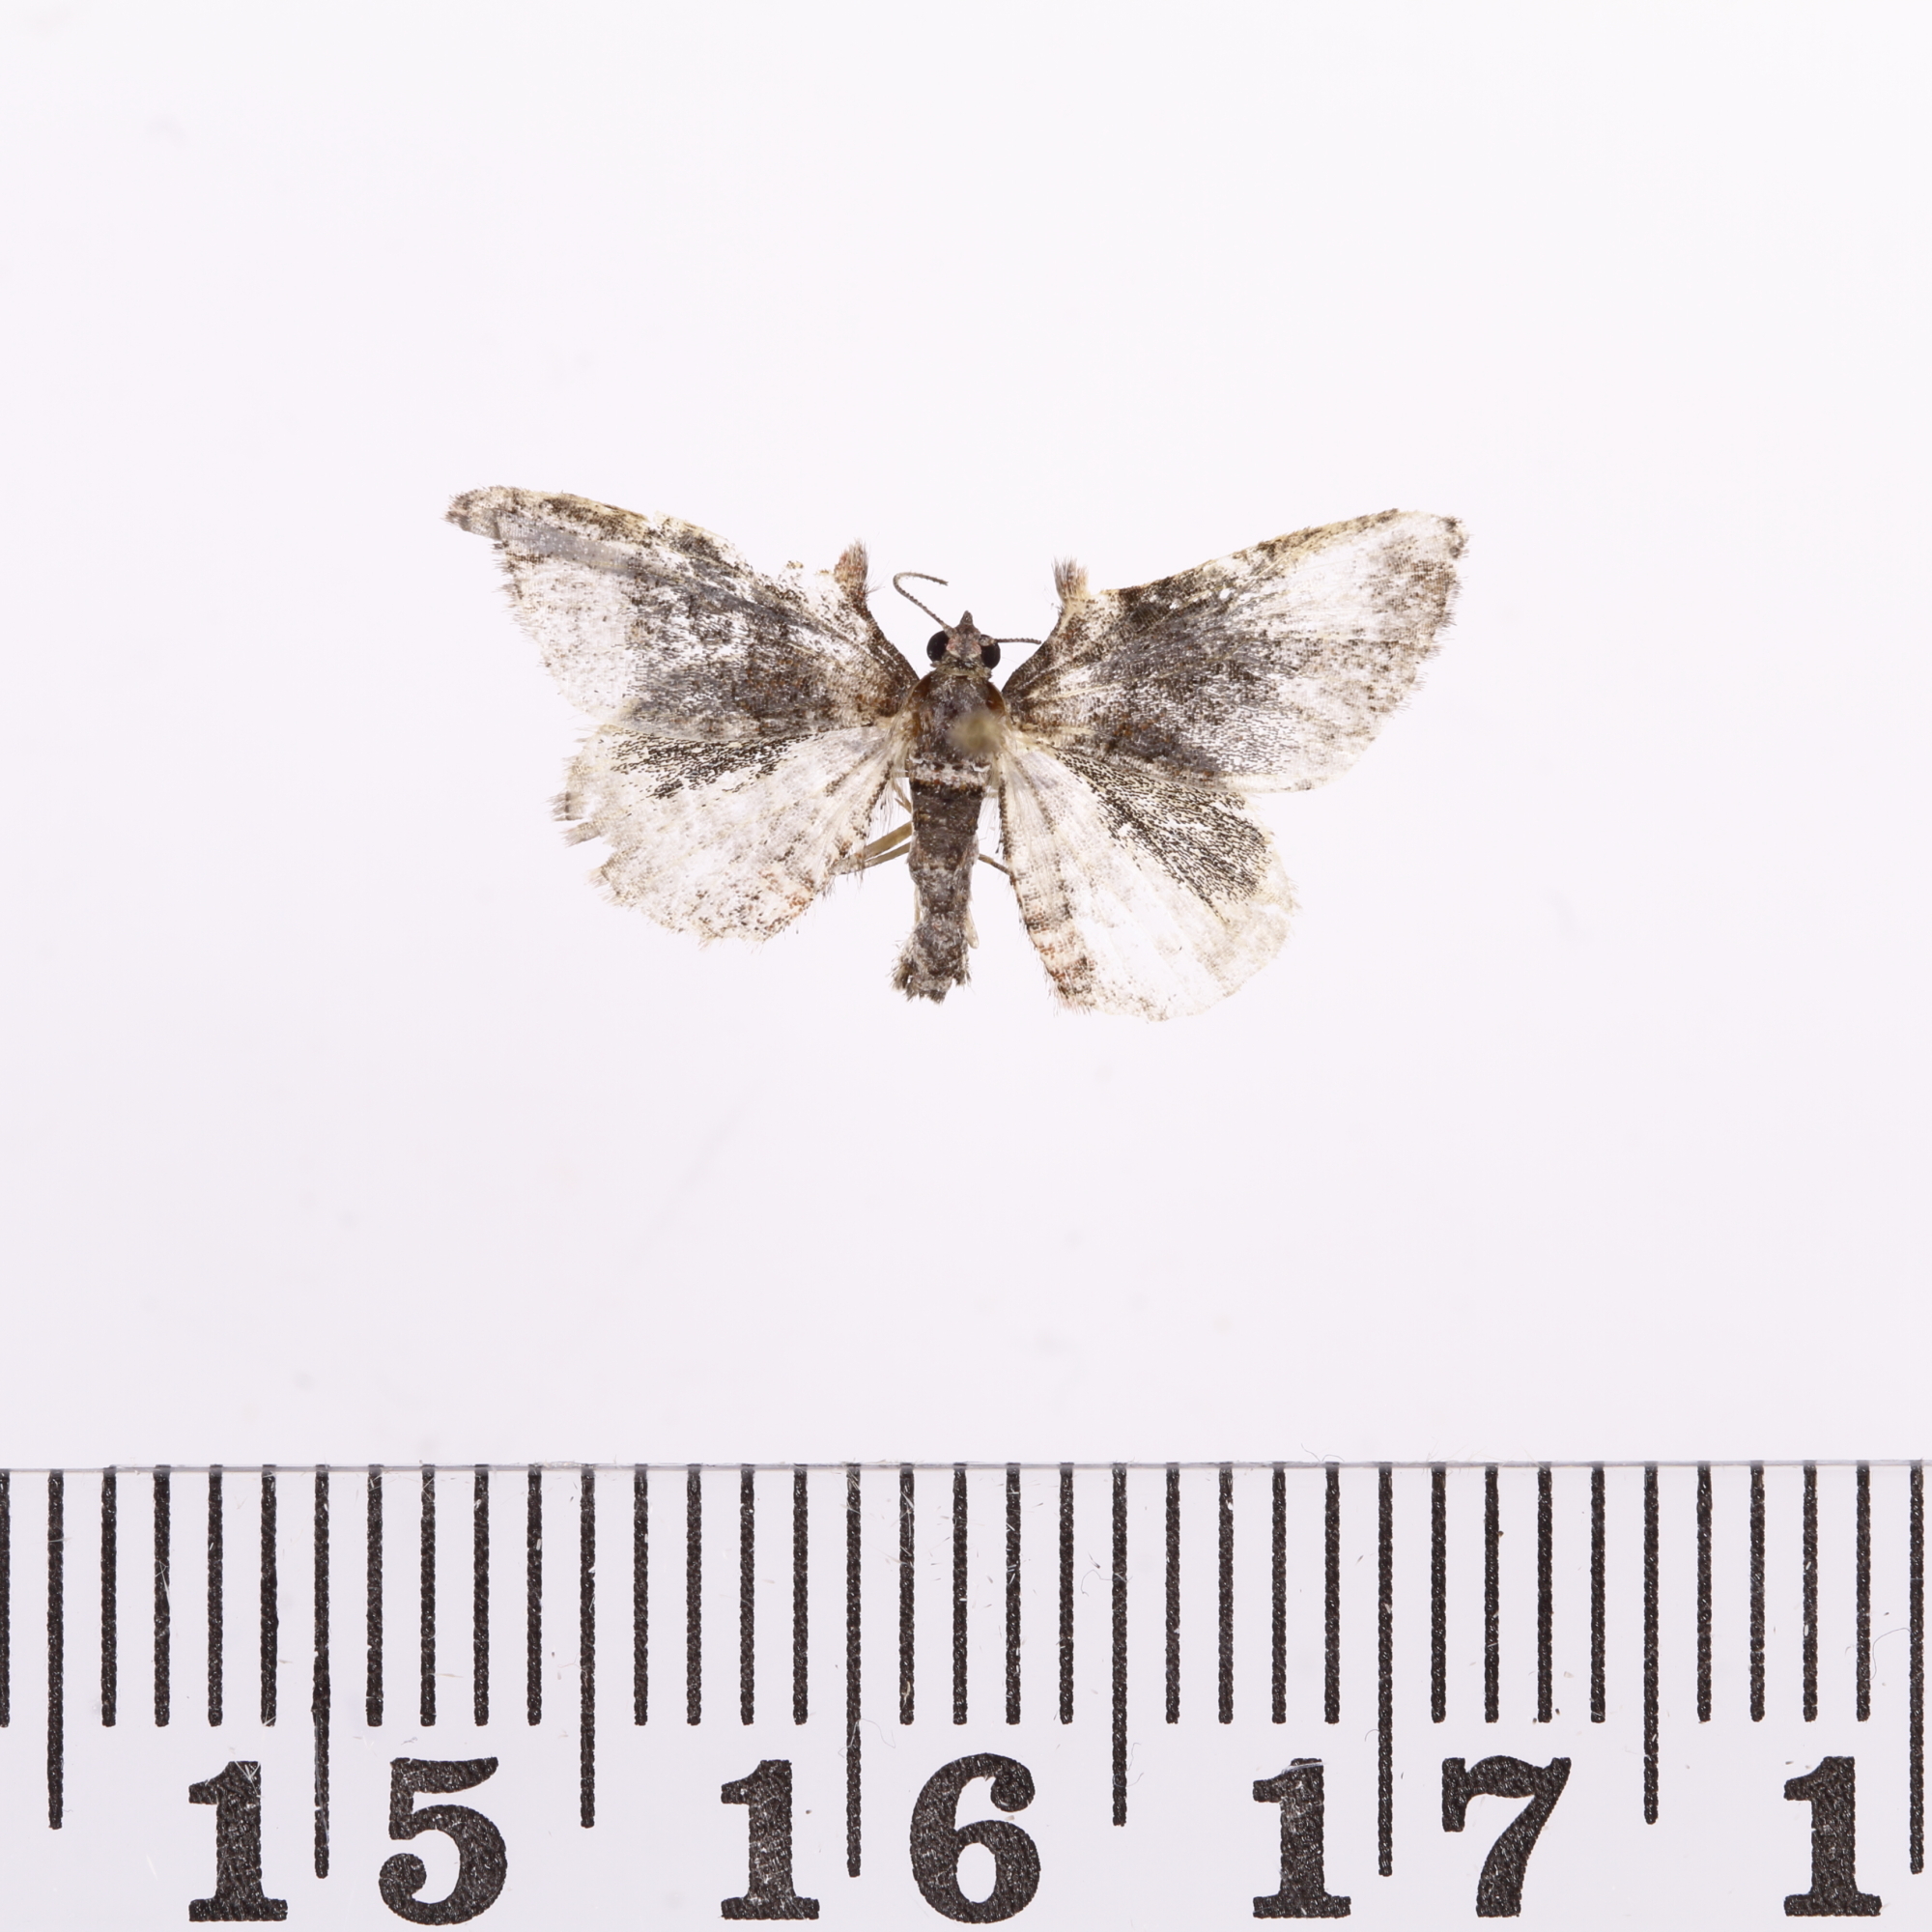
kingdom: Animalia
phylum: Arthropoda
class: Insecta
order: Lepidoptera
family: Geometridae
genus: Phrissogonus
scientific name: Phrissogonus laticostata
